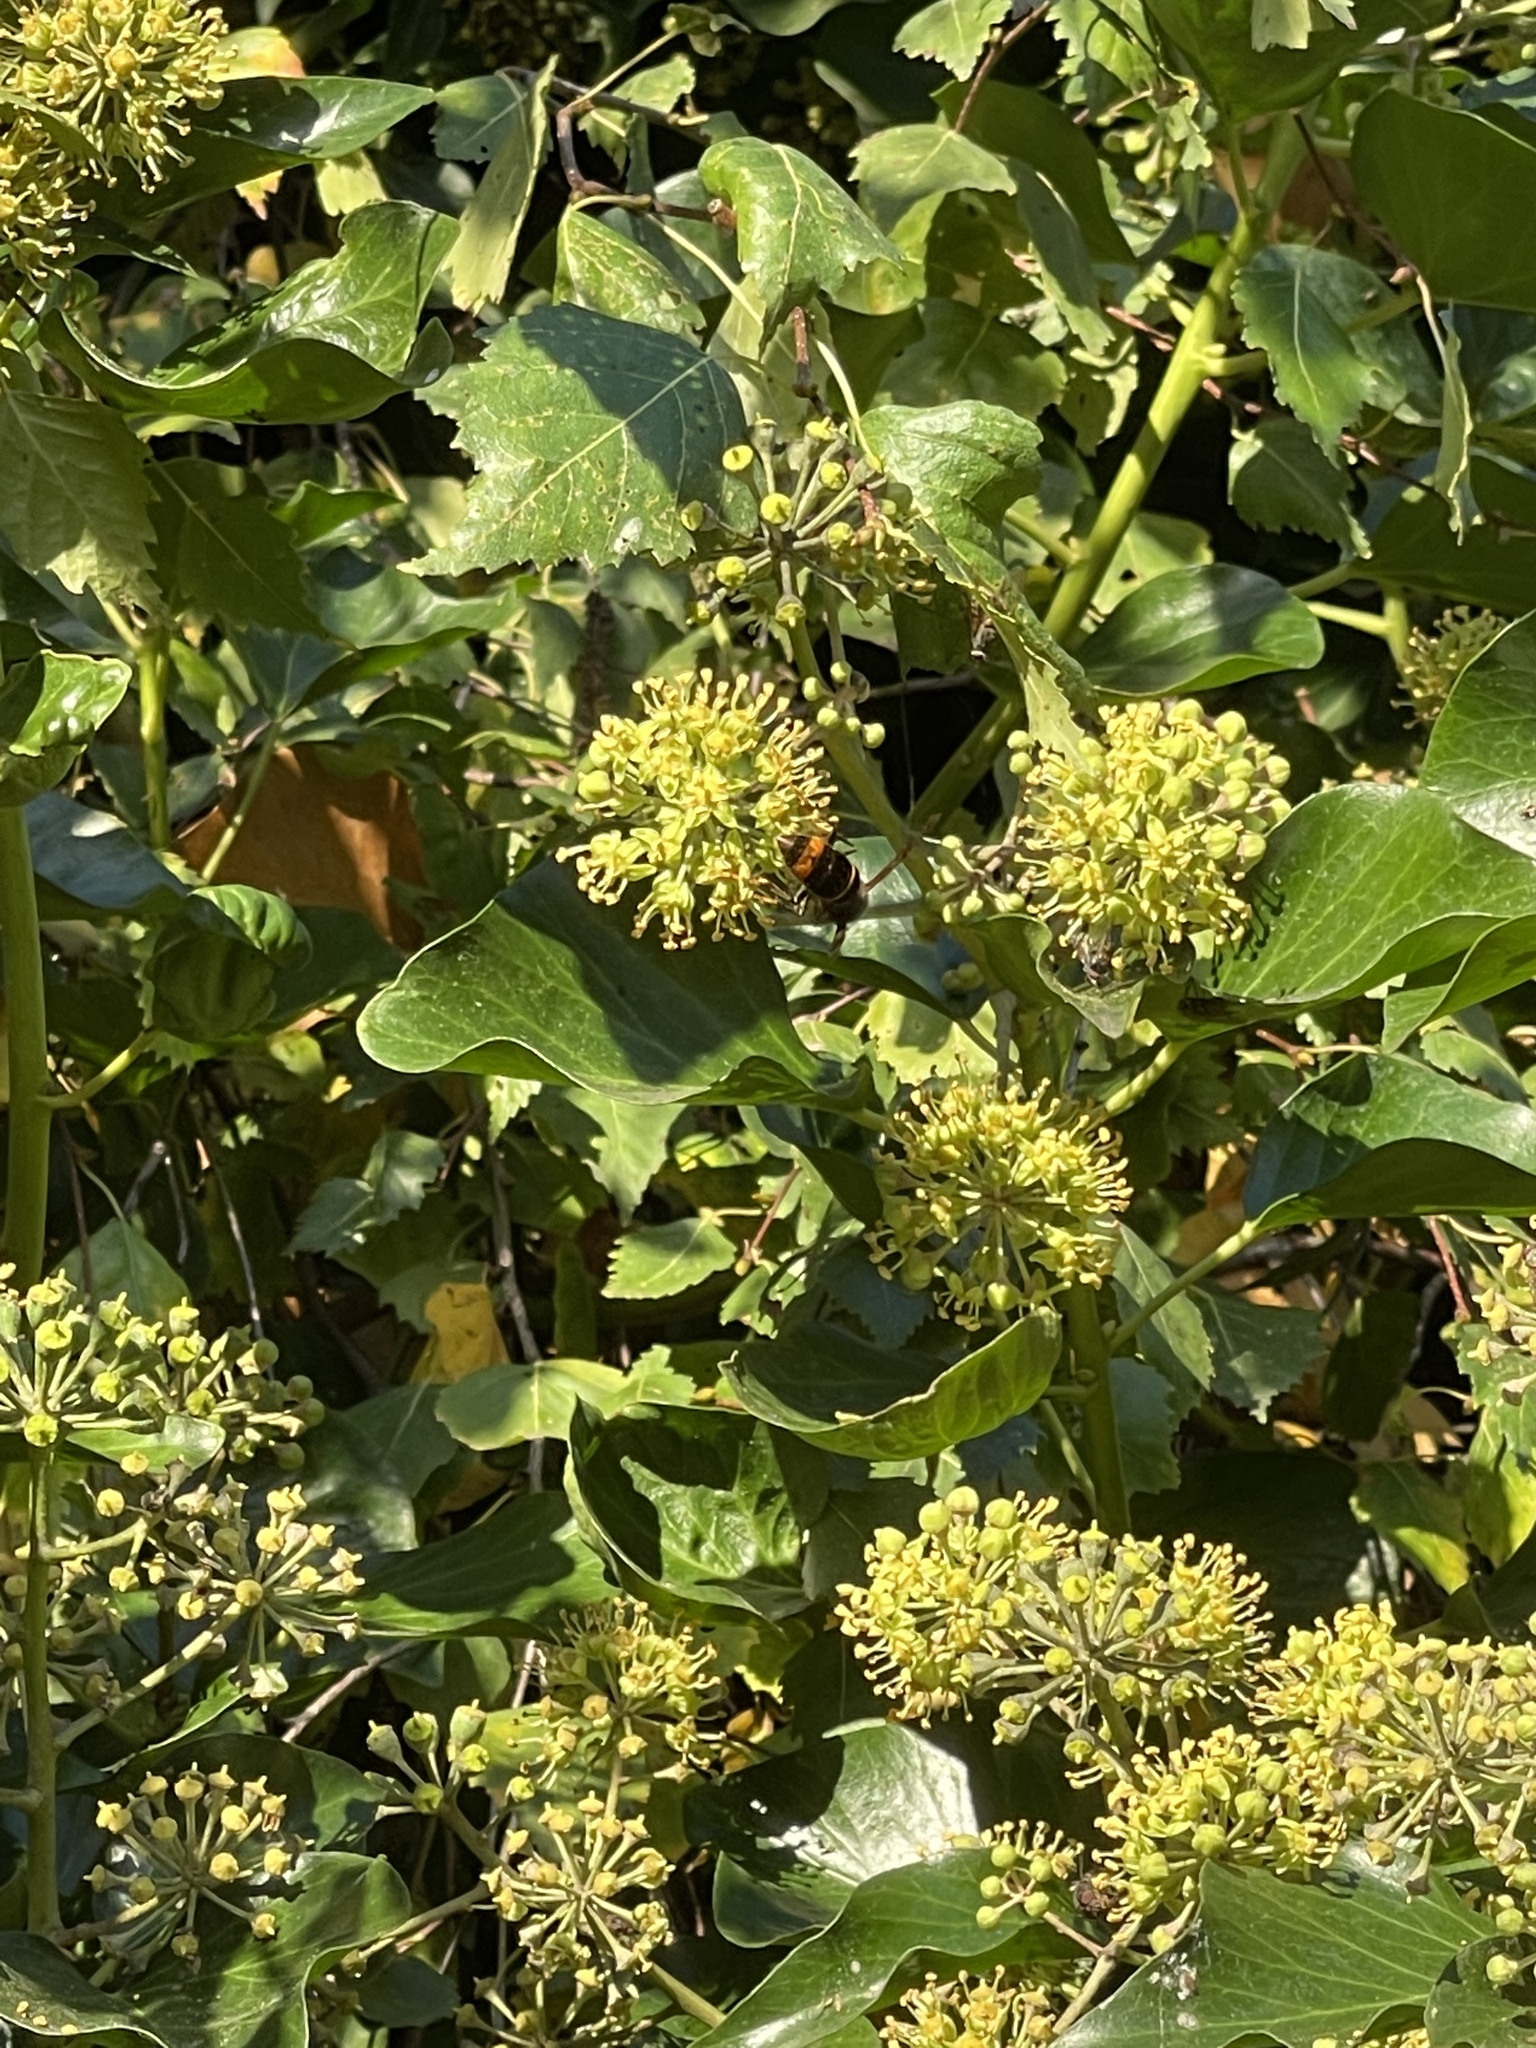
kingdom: Animalia
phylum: Arthropoda
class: Insecta
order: Hymenoptera
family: Vespidae
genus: Vespa
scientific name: Vespa velutina
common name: Asian hornet
